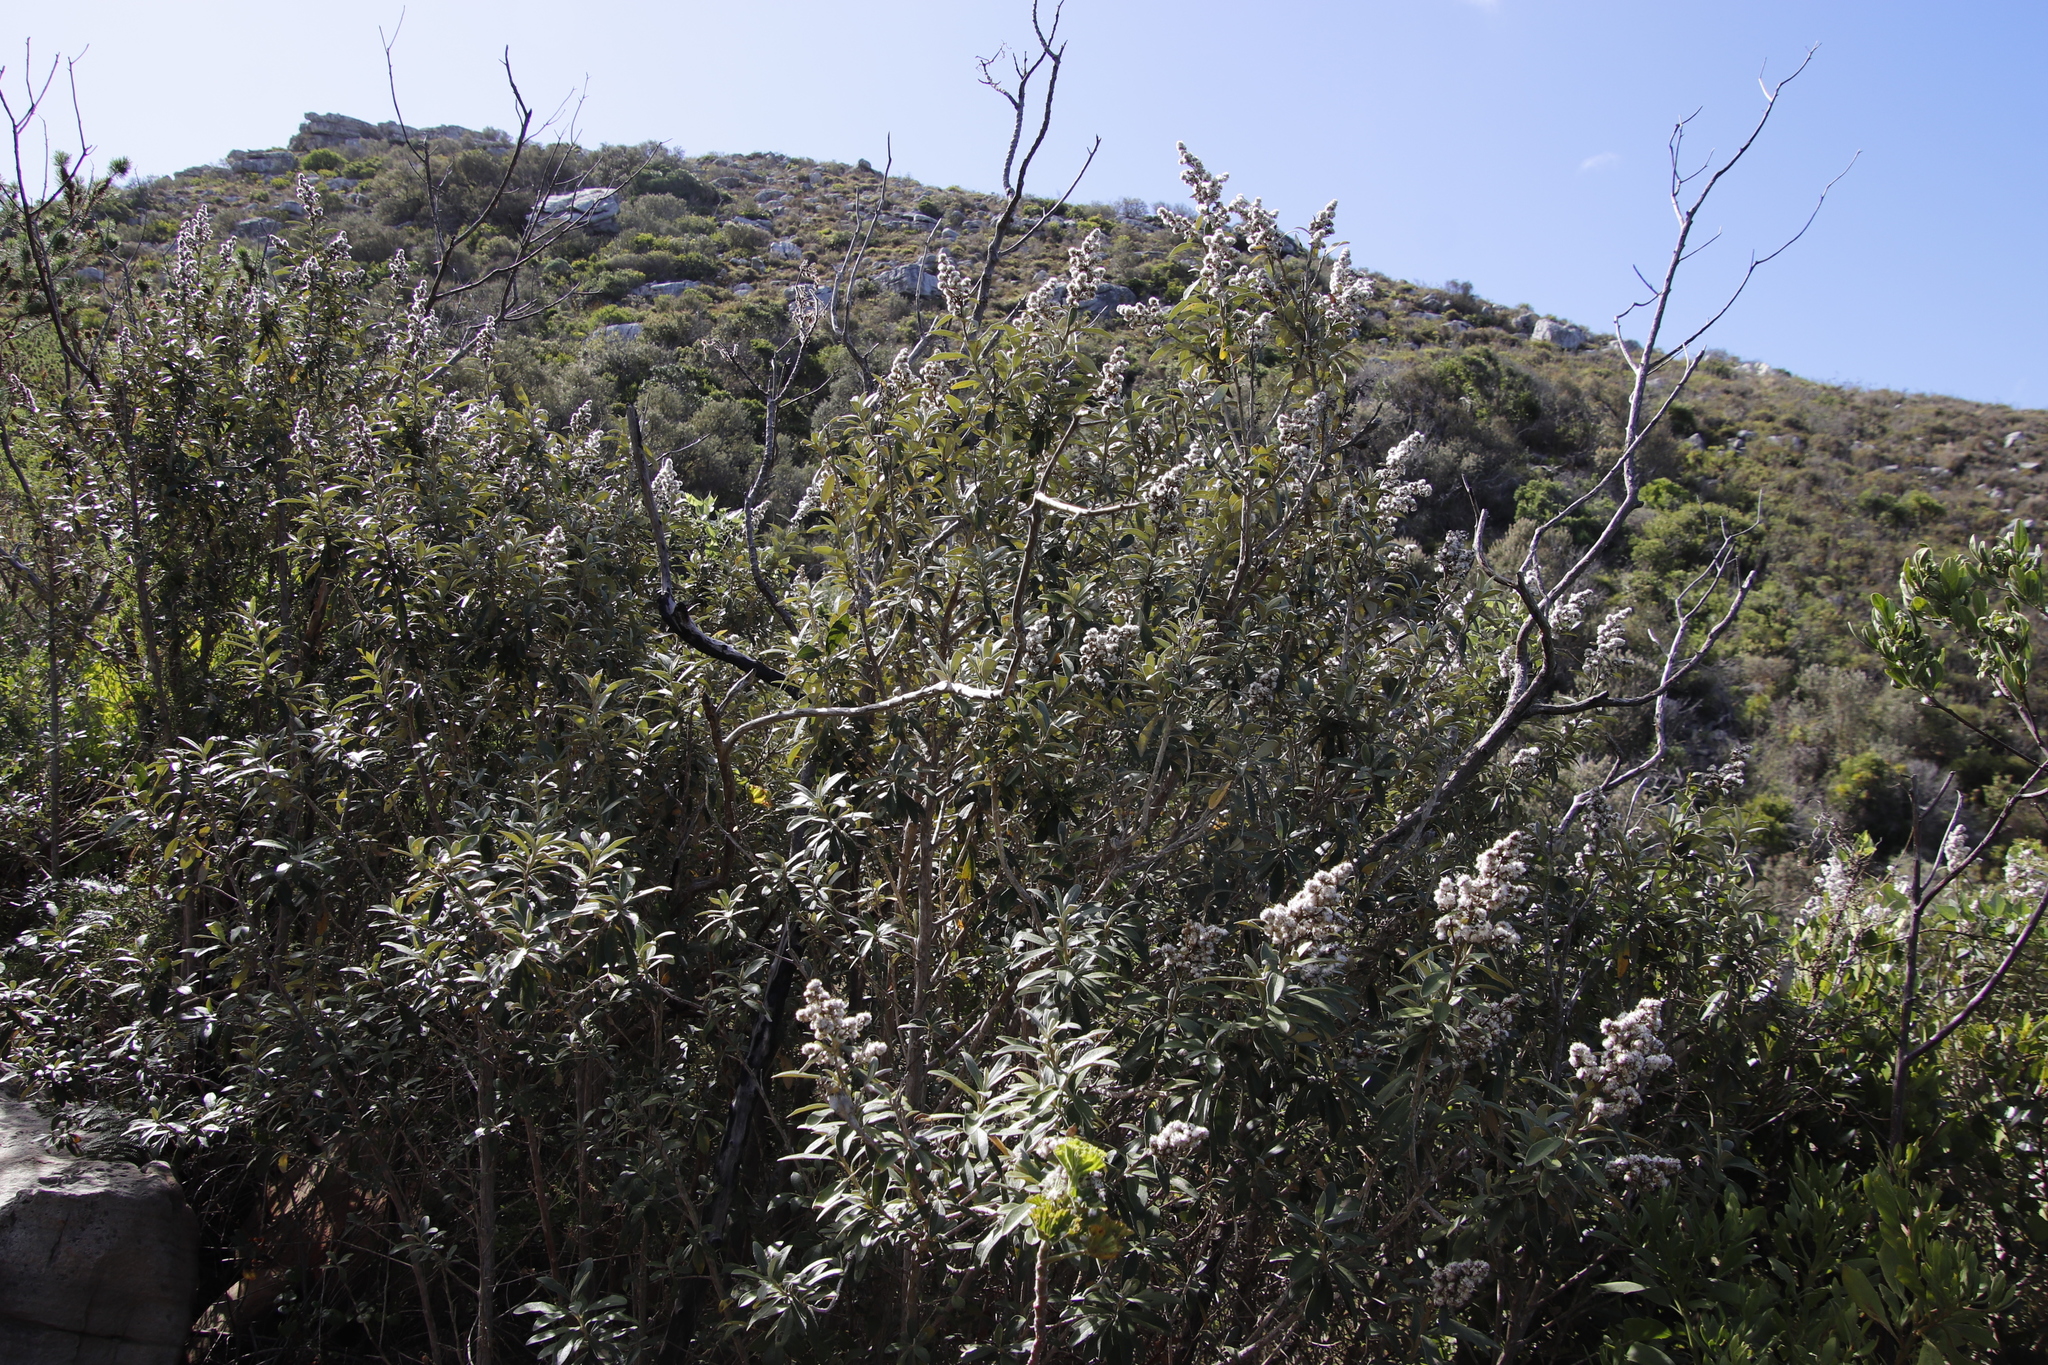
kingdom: Plantae
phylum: Tracheophyta
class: Magnoliopsida
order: Asterales
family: Asteraceae
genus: Tarchonanthus
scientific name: Tarchonanthus littoralis
